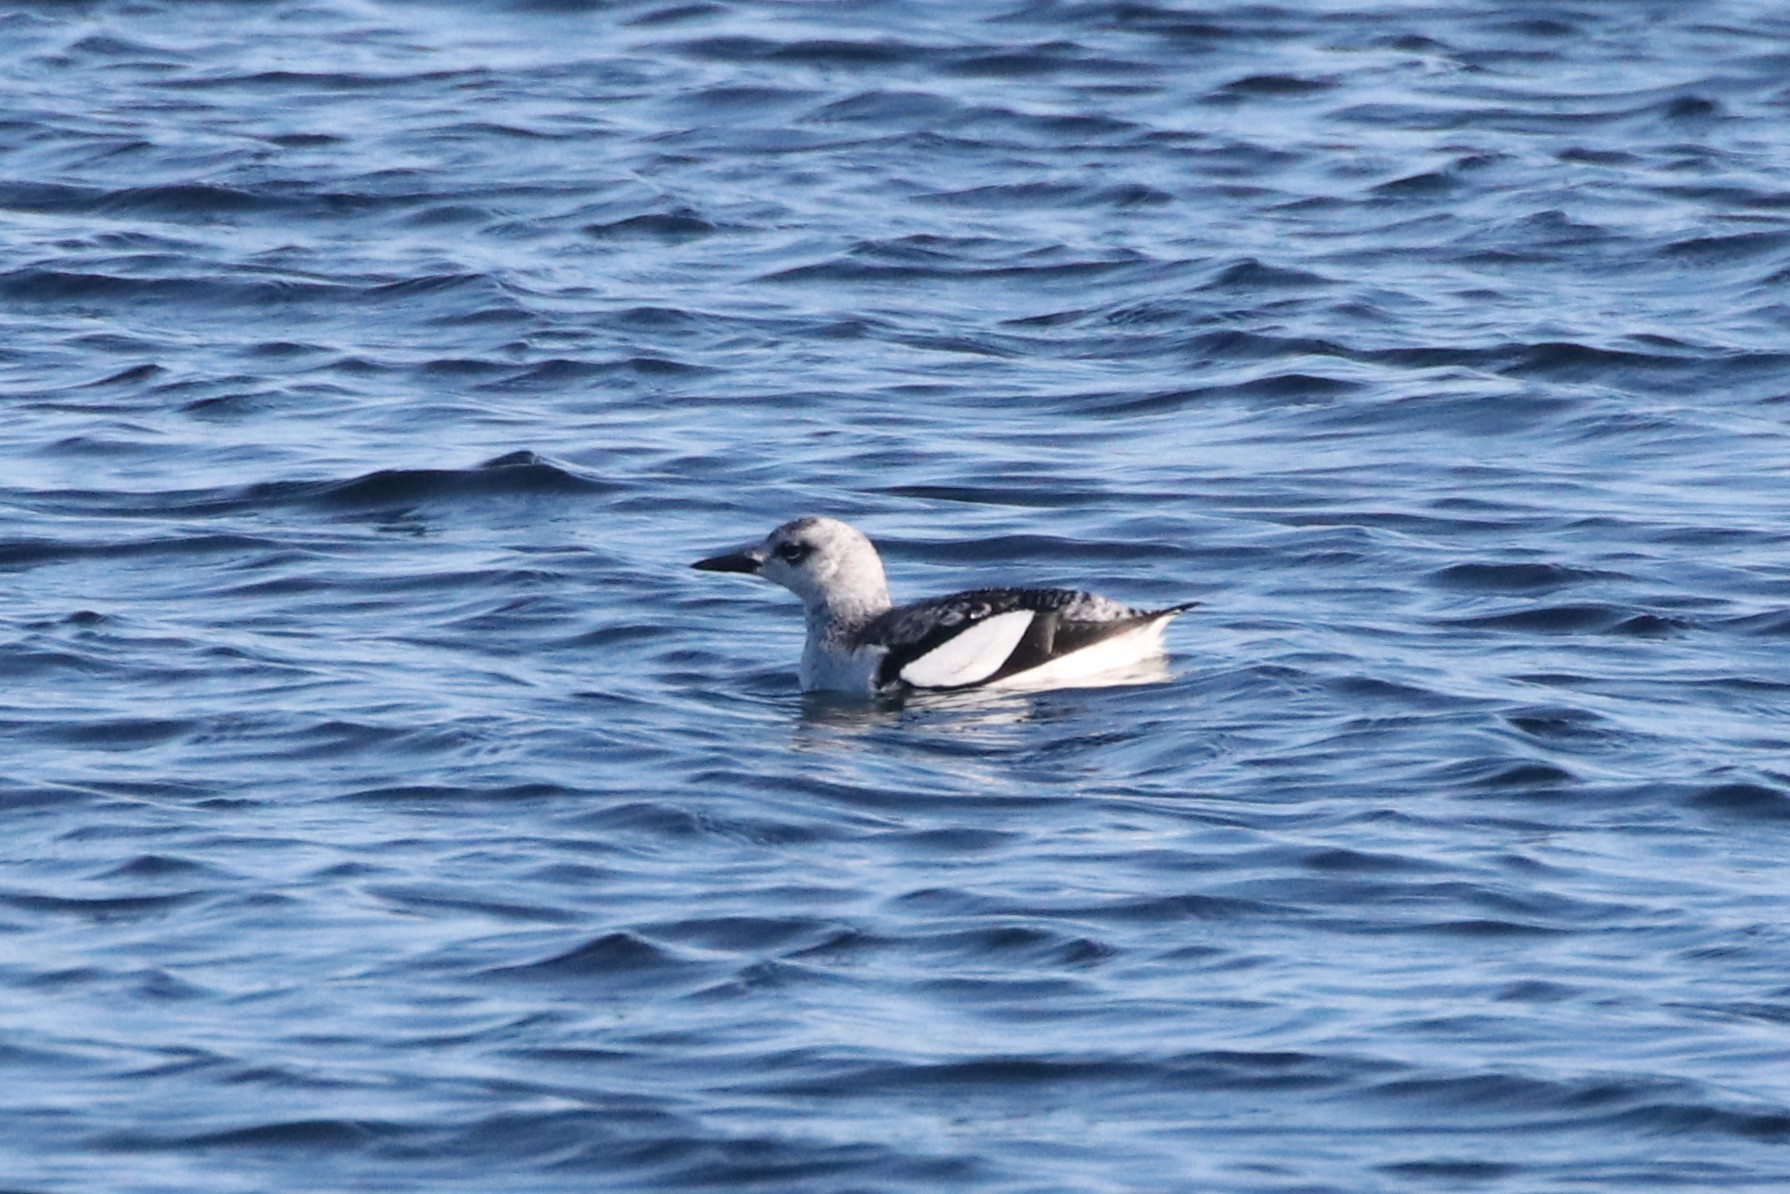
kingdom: Animalia
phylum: Chordata
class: Aves
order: Charadriiformes
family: Alcidae
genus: Cepphus
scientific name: Cepphus grylle
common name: Black guillemot
